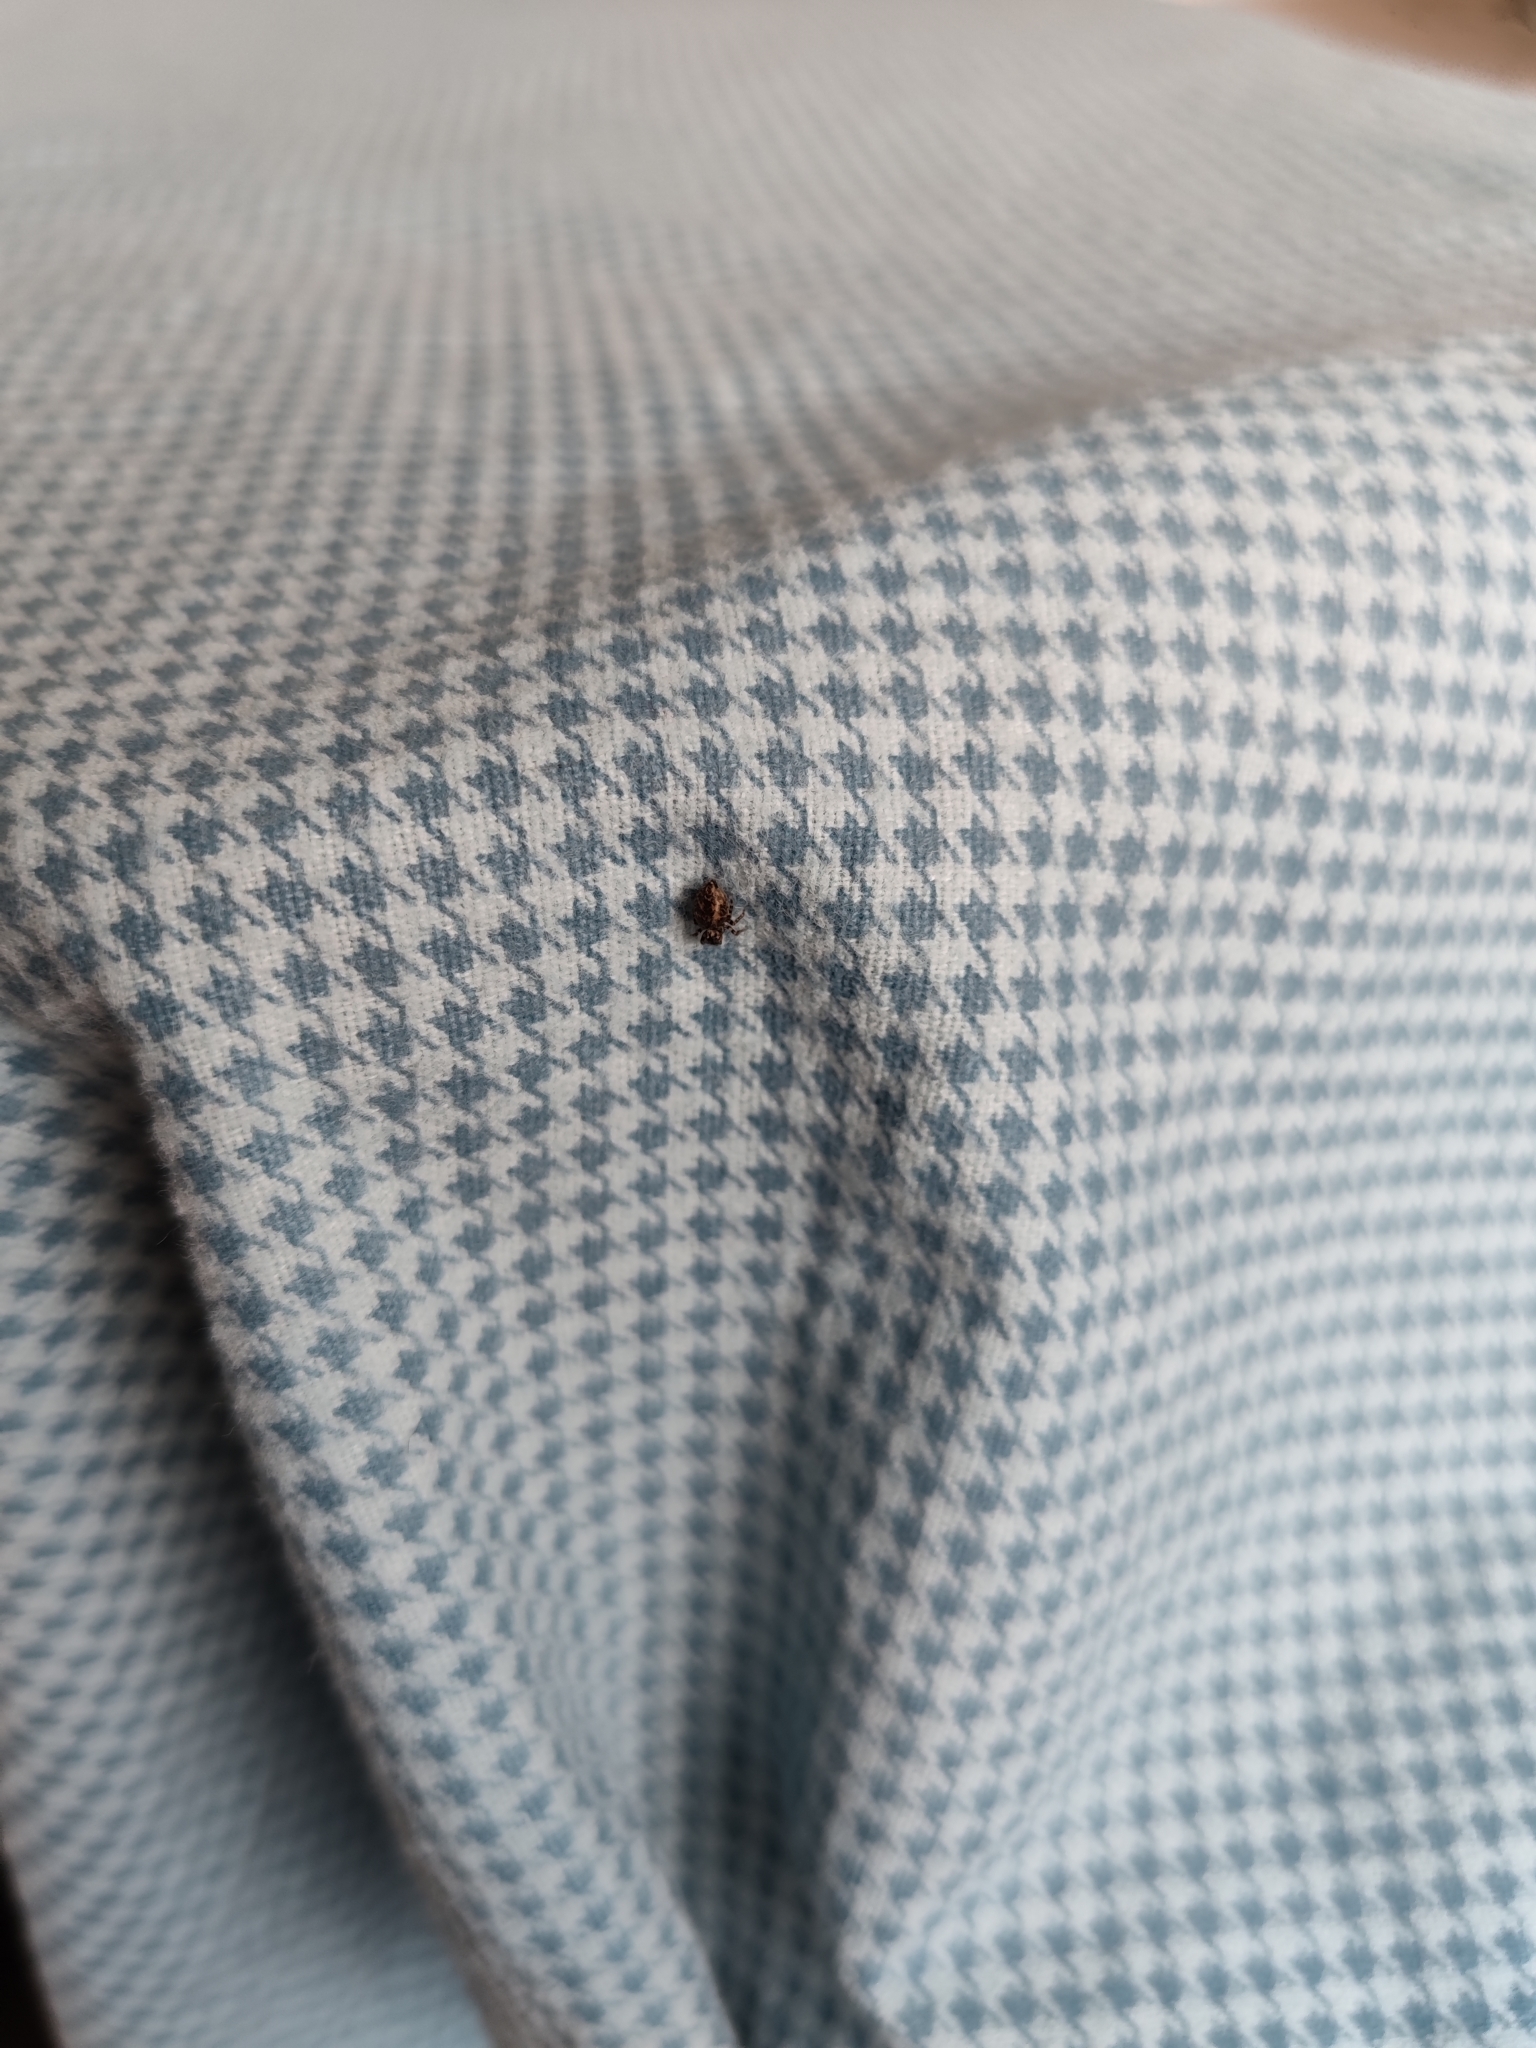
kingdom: Animalia
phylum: Arthropoda
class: Arachnida
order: Araneae
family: Salticidae
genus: Pseudeuophrys
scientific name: Pseudeuophrys lanigera
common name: Jumping spider
